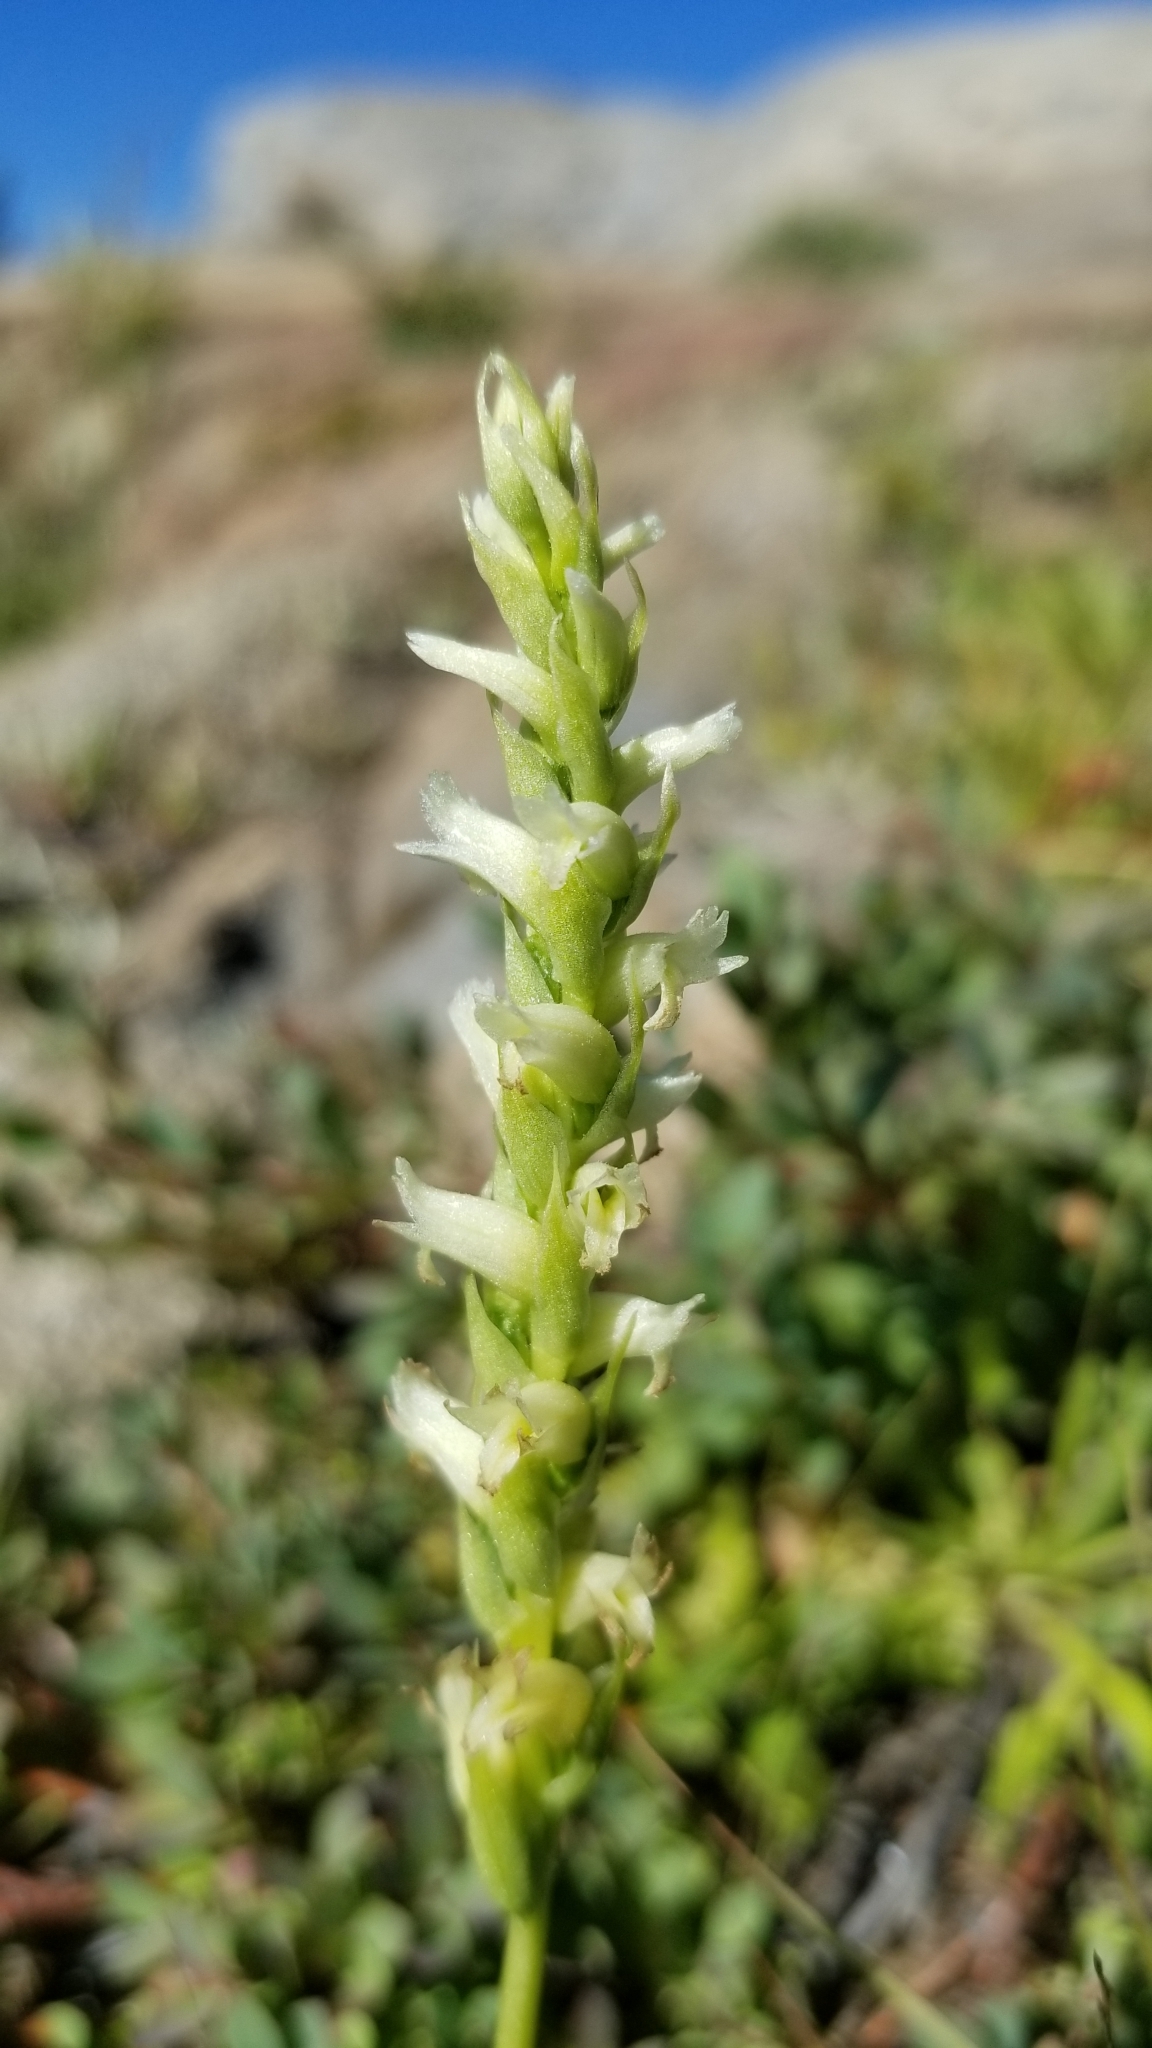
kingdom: Plantae
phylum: Tracheophyta
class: Liliopsida
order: Asparagales
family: Orchidaceae
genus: Spiranthes
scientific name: Spiranthes romanzoffiana
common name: Irish lady's-tresses
